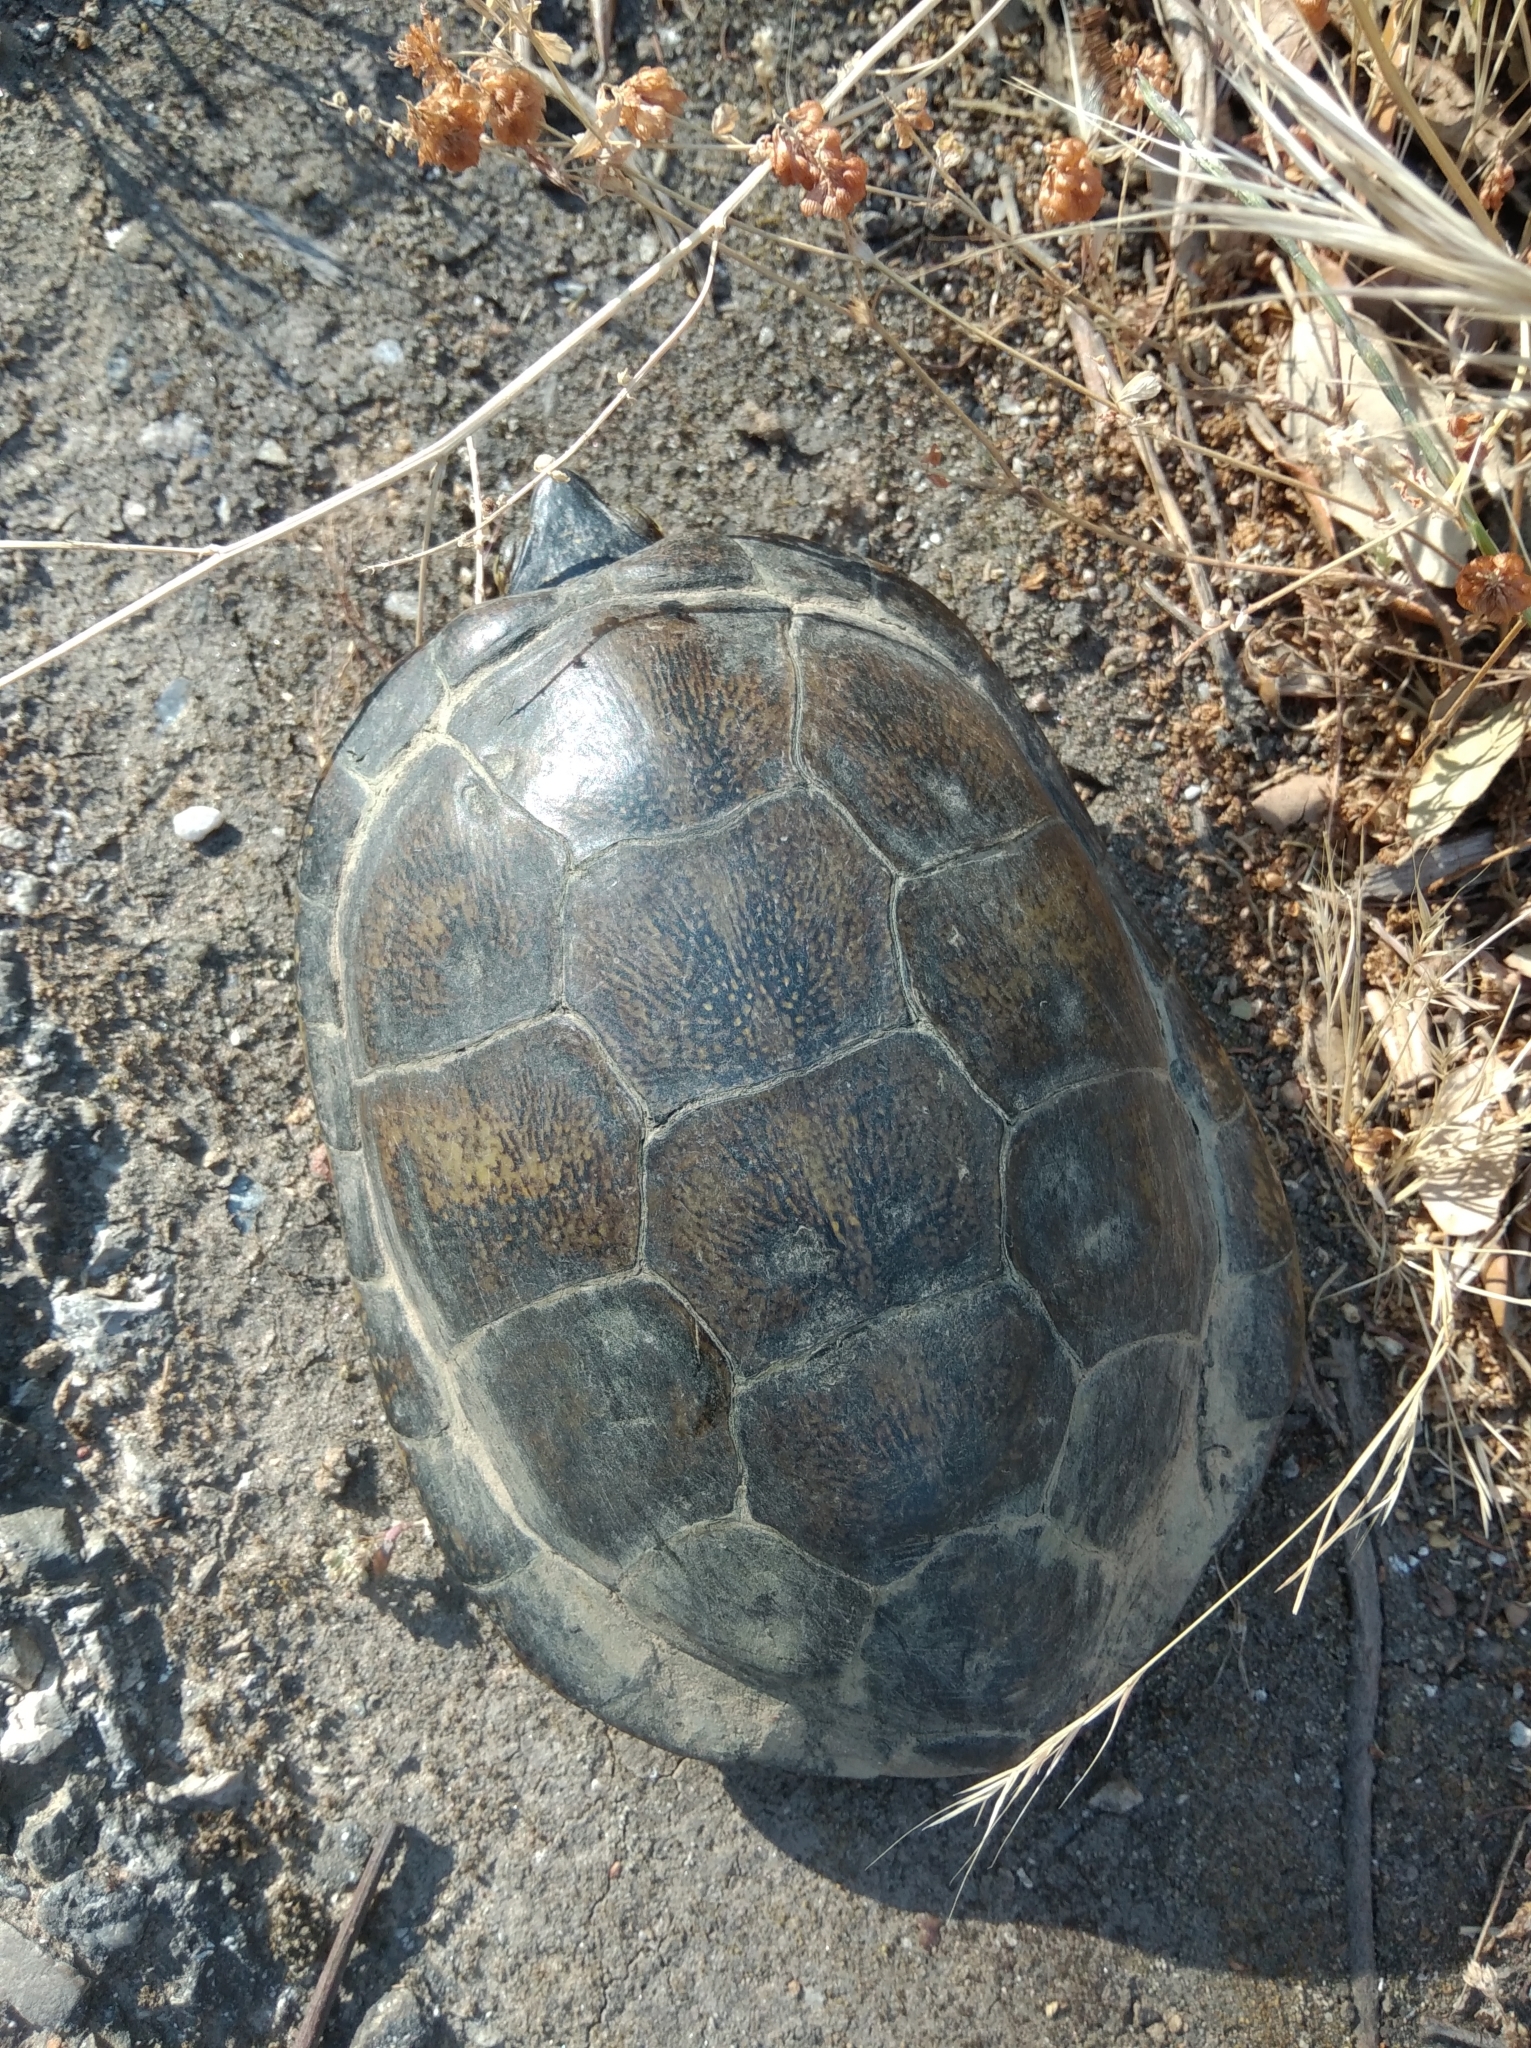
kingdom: Animalia
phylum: Chordata
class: Testudines
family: Emydidae
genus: Emys
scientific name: Emys orbicularis
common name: European pond turtle
